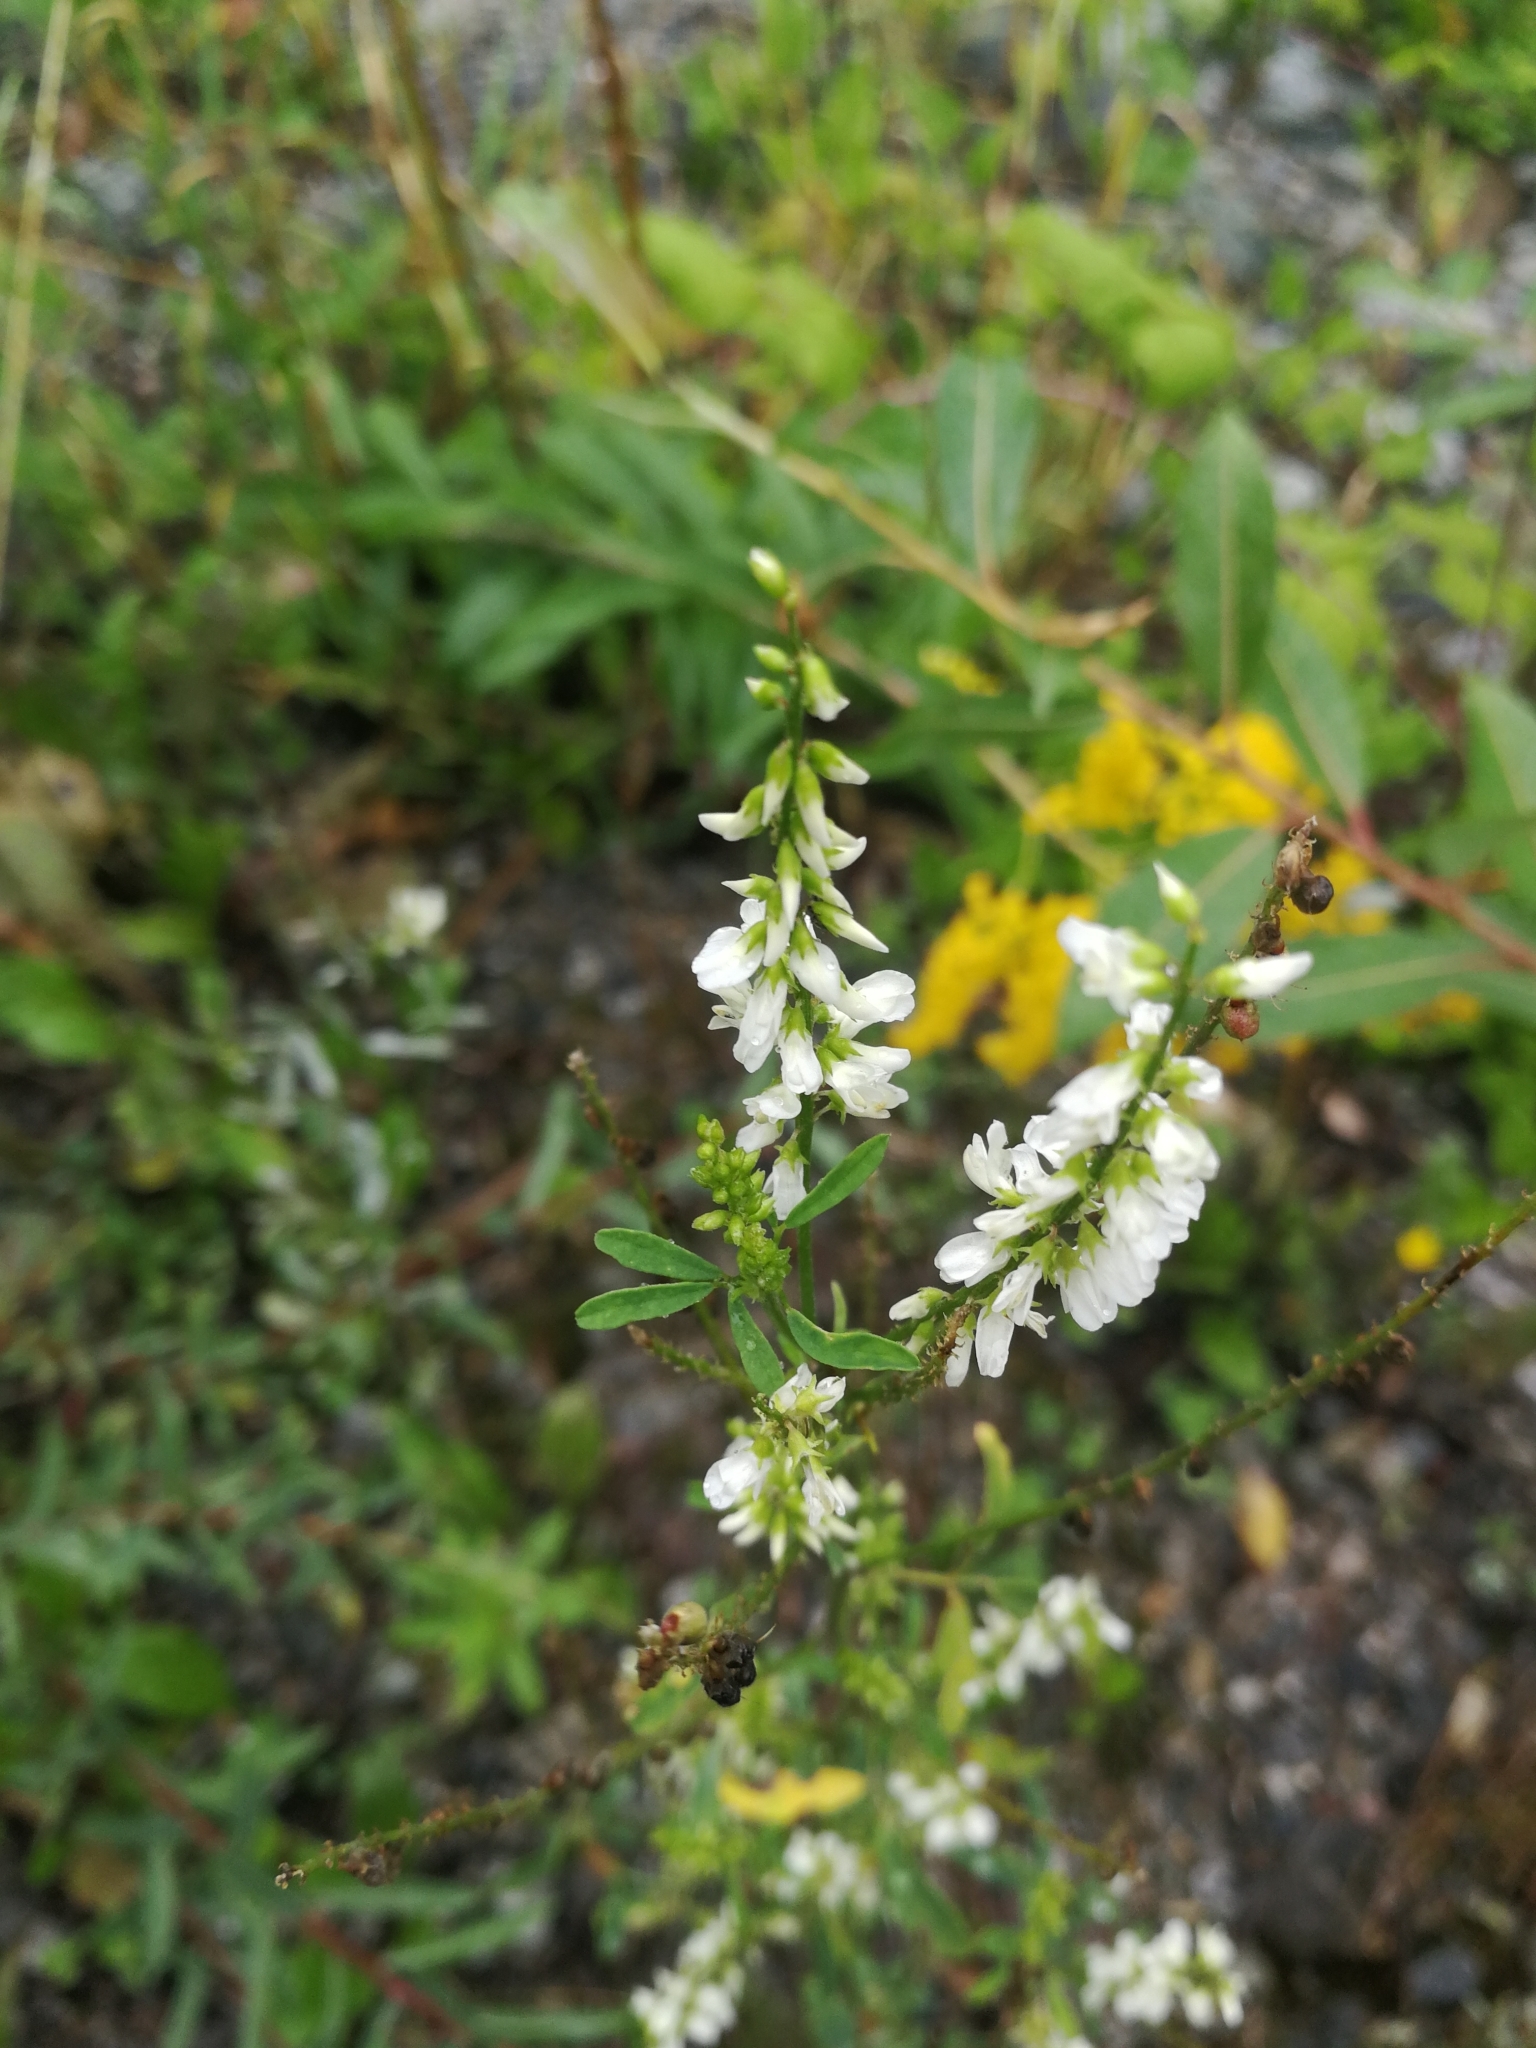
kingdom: Plantae
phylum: Tracheophyta
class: Magnoliopsida
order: Fabales
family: Fabaceae
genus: Melilotus
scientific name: Melilotus albus
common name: White melilot
